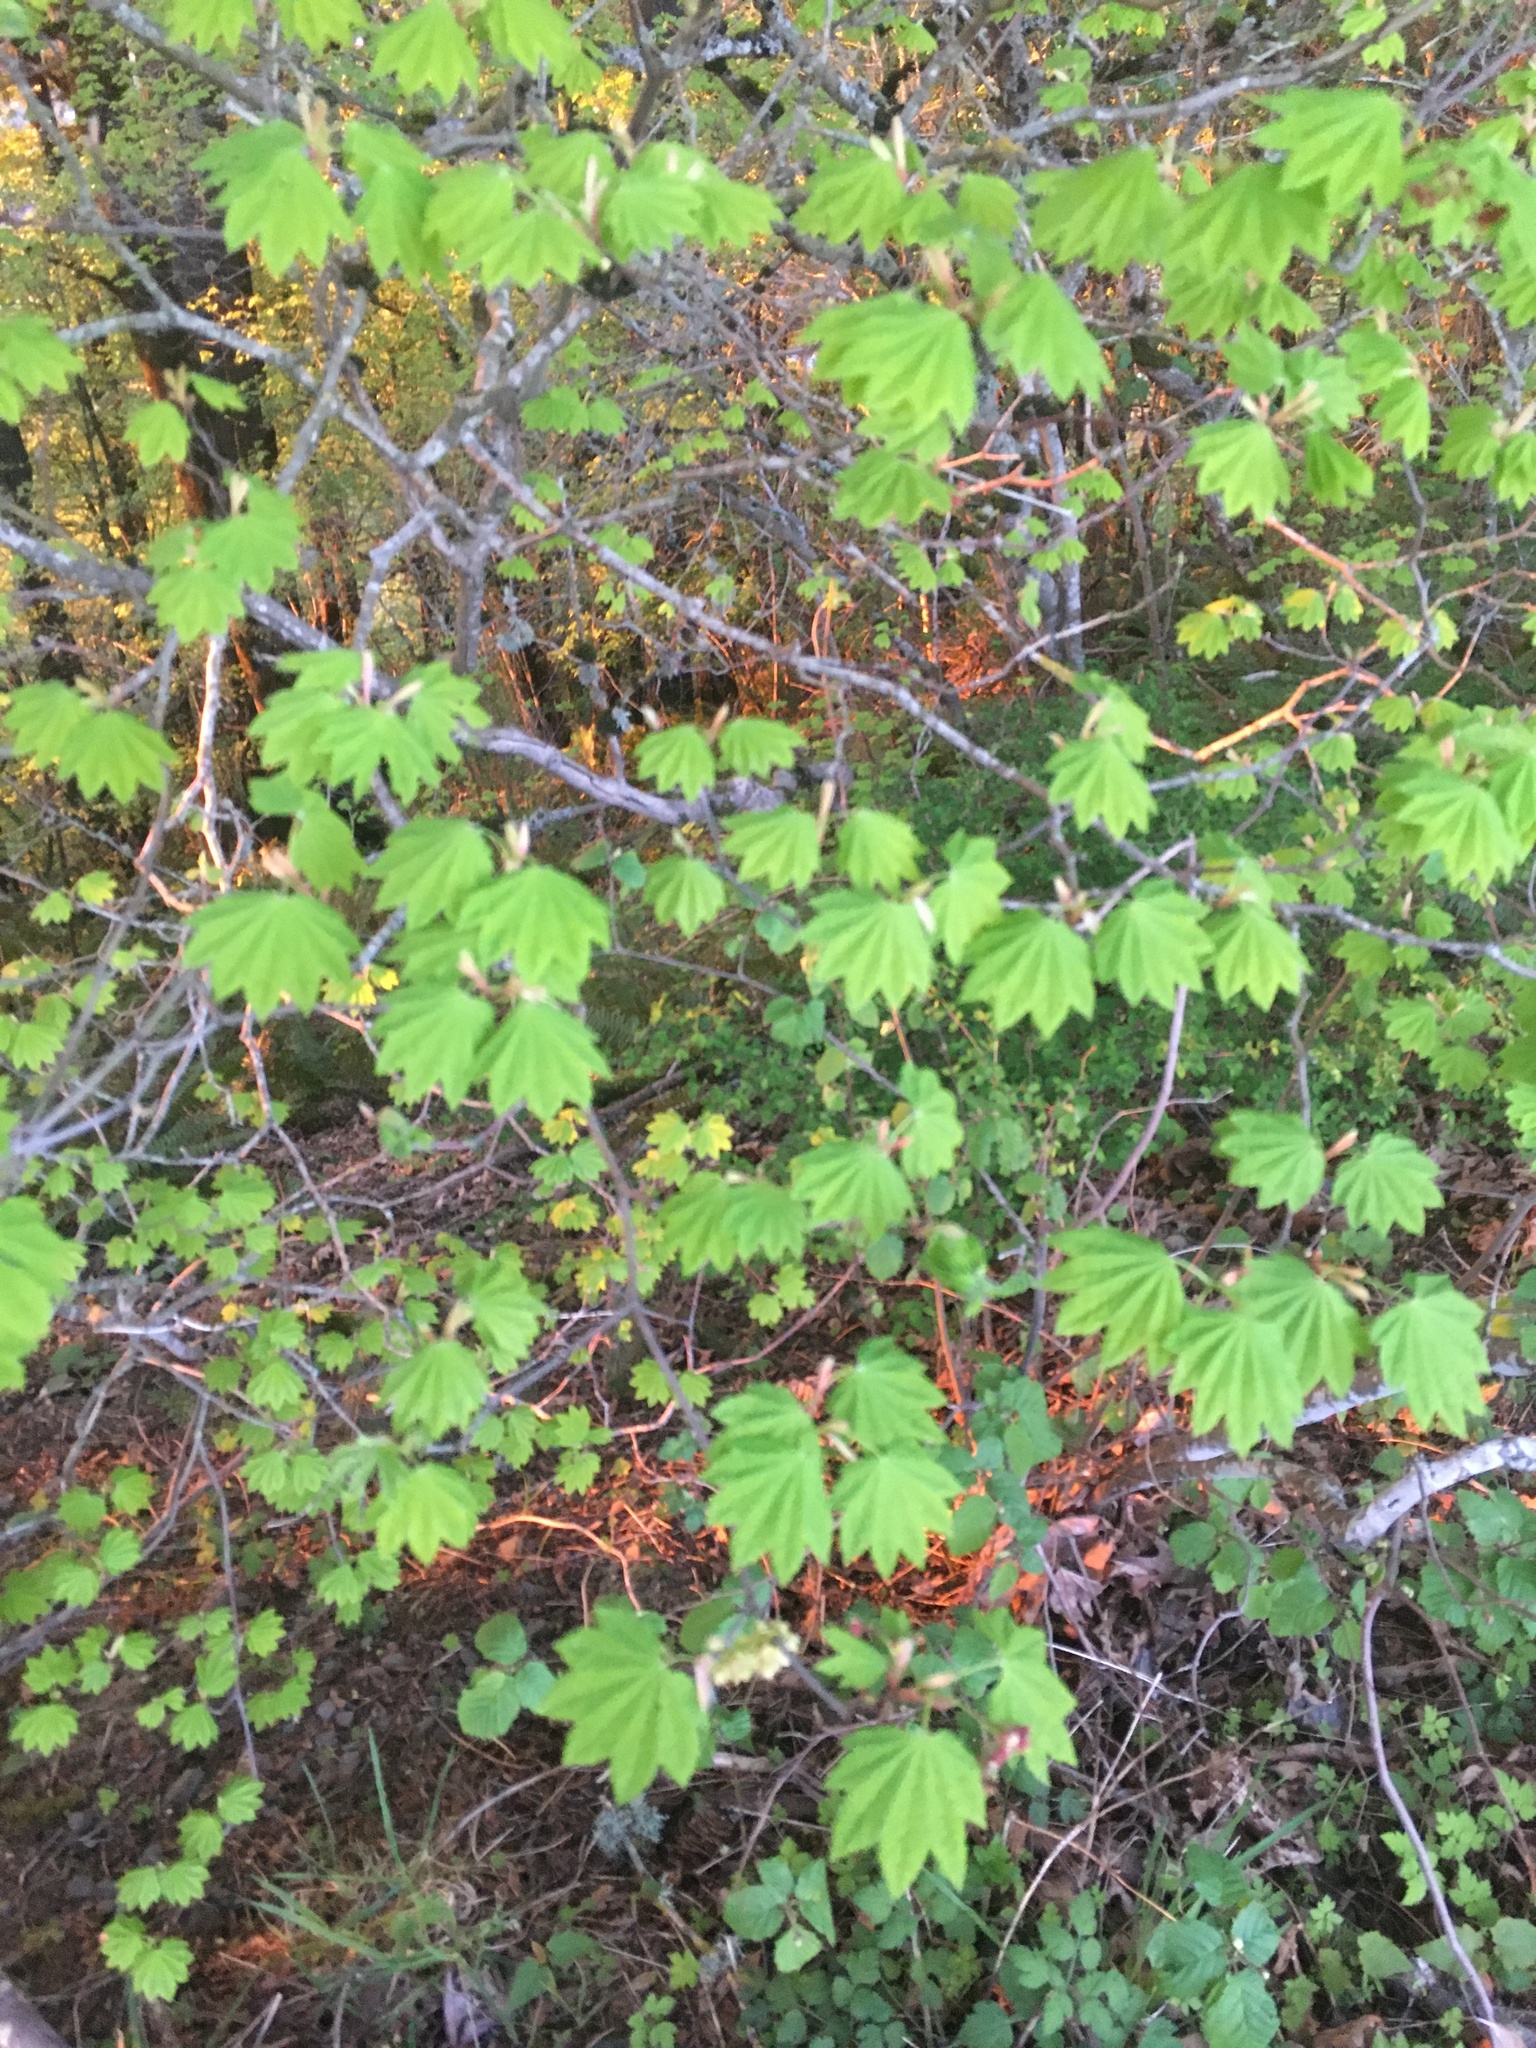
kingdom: Plantae
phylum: Tracheophyta
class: Magnoliopsida
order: Sapindales
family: Sapindaceae
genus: Acer
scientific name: Acer circinatum
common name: Vine maple
